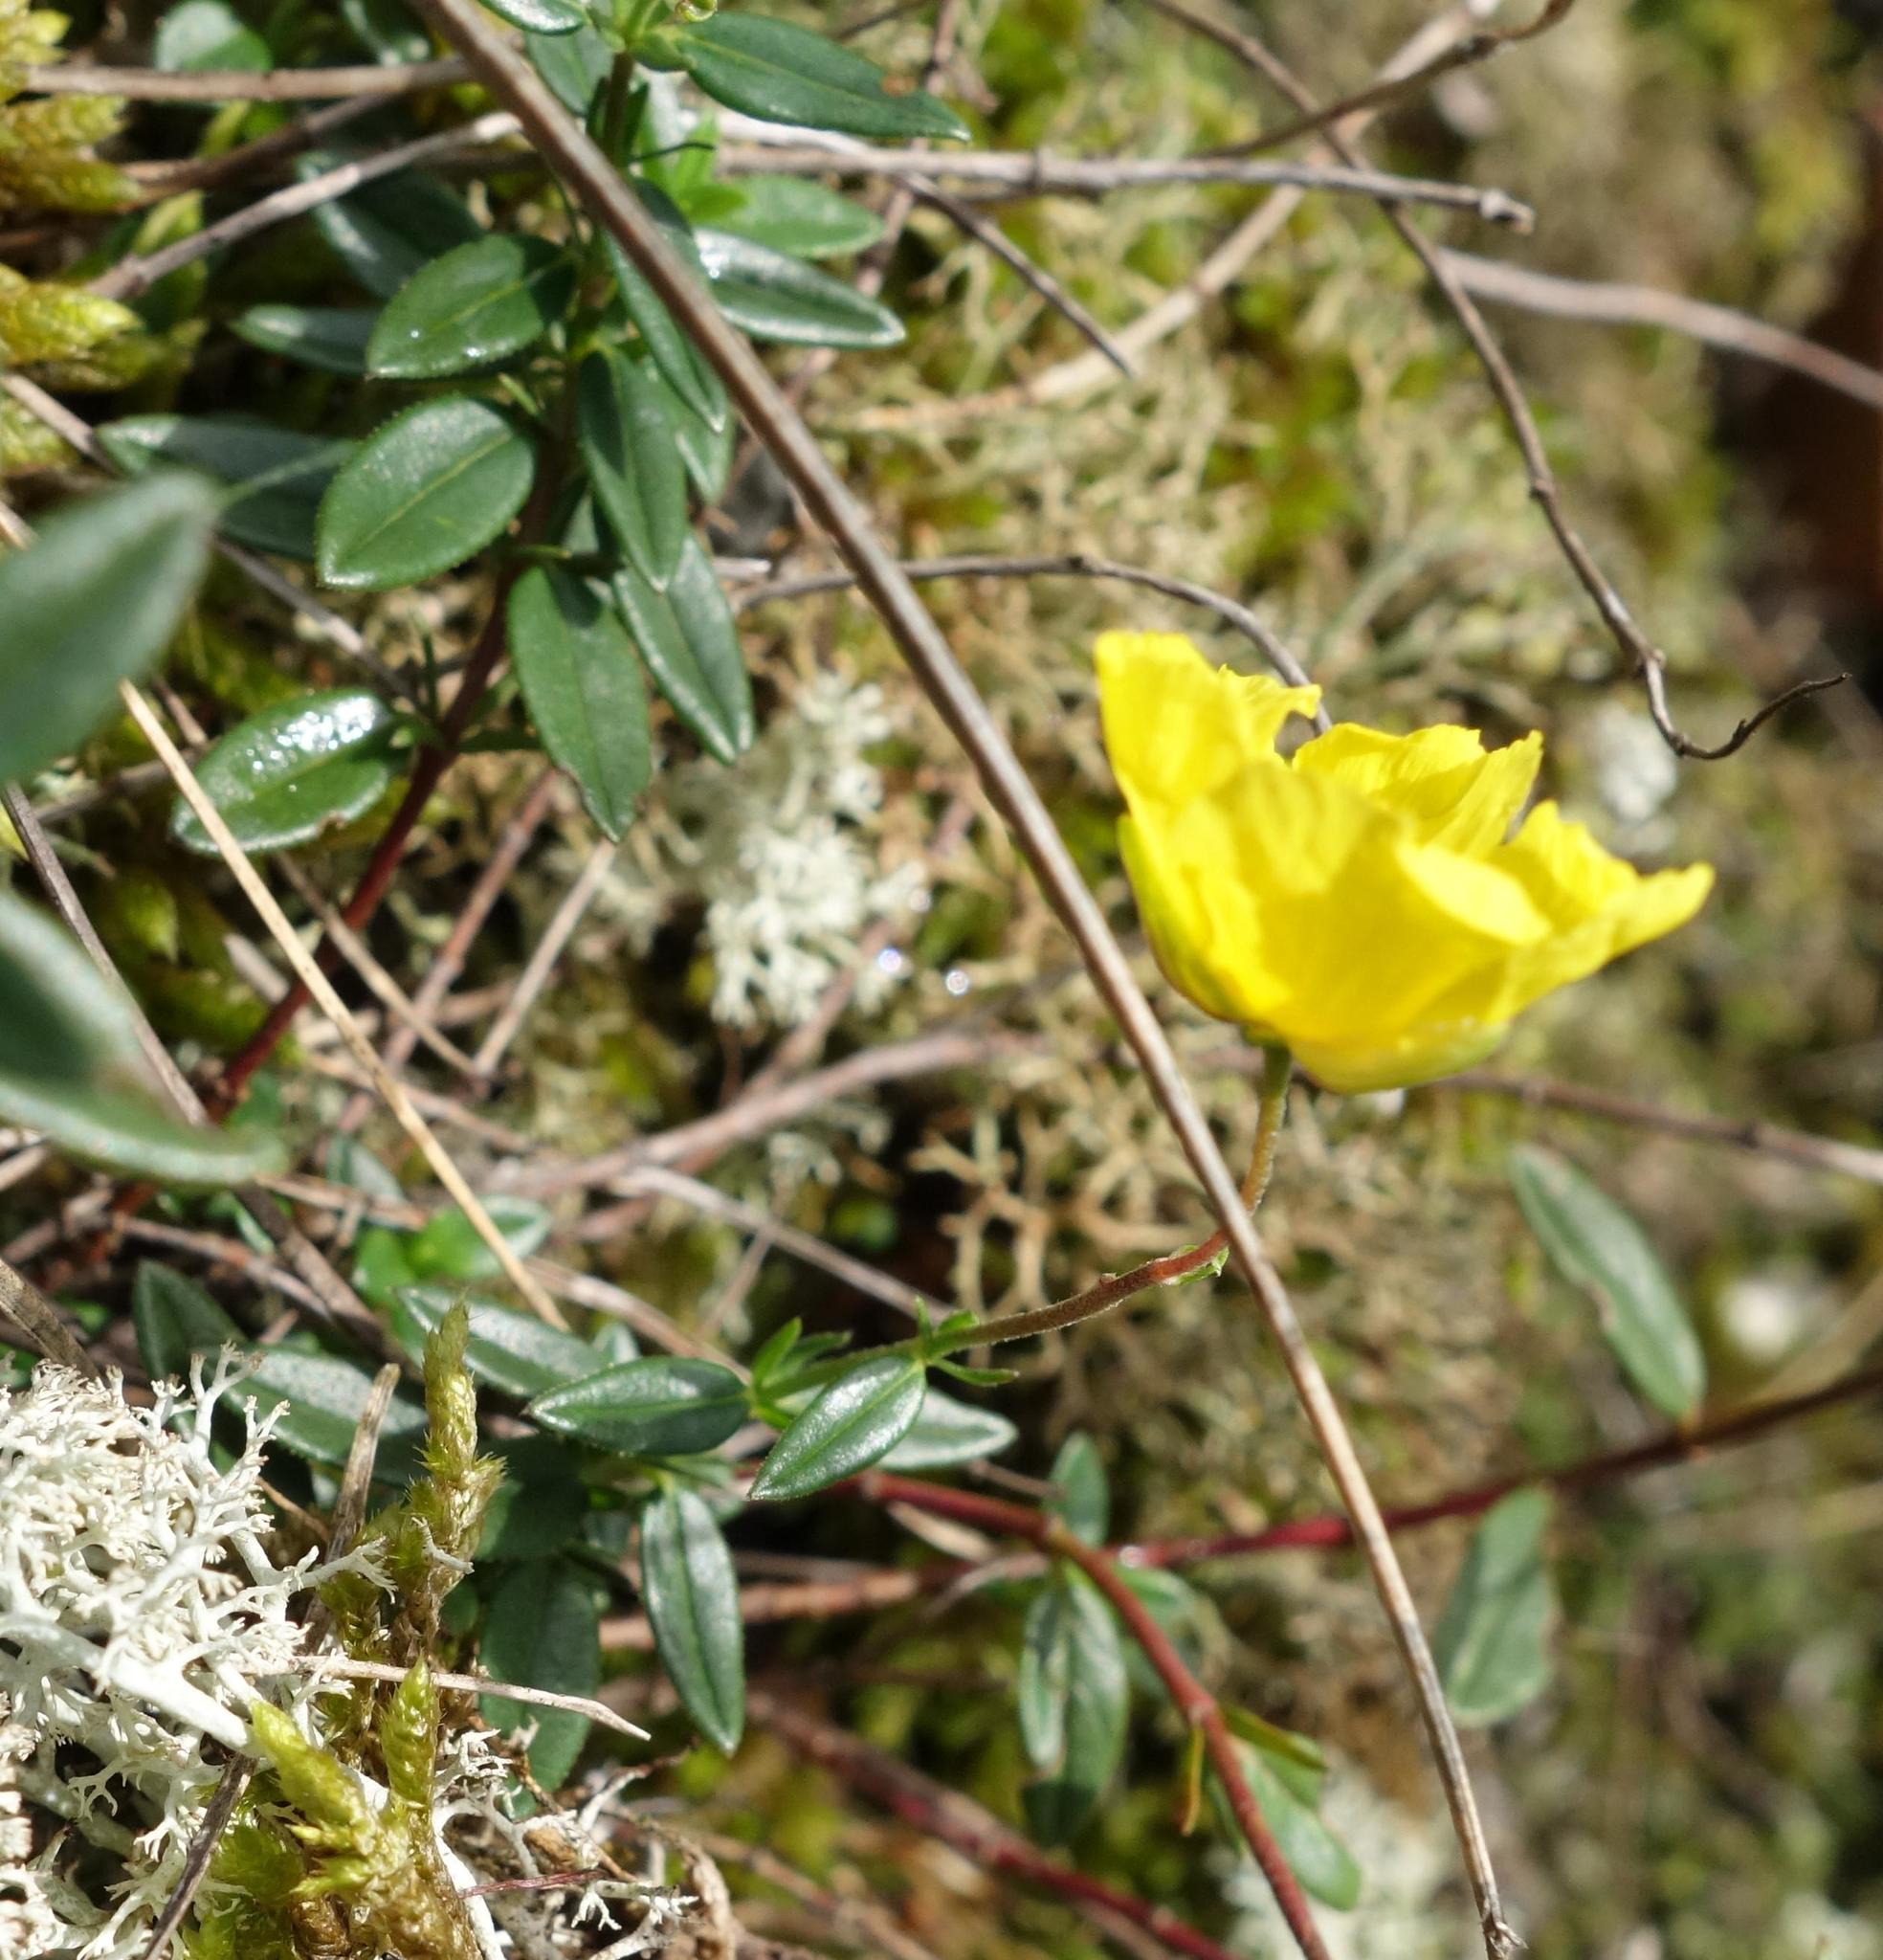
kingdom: Plantae
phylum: Tracheophyta
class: Magnoliopsida
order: Malvales
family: Cistaceae
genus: Helianthemum
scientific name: Helianthemum nummularium
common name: Common rock-rose
